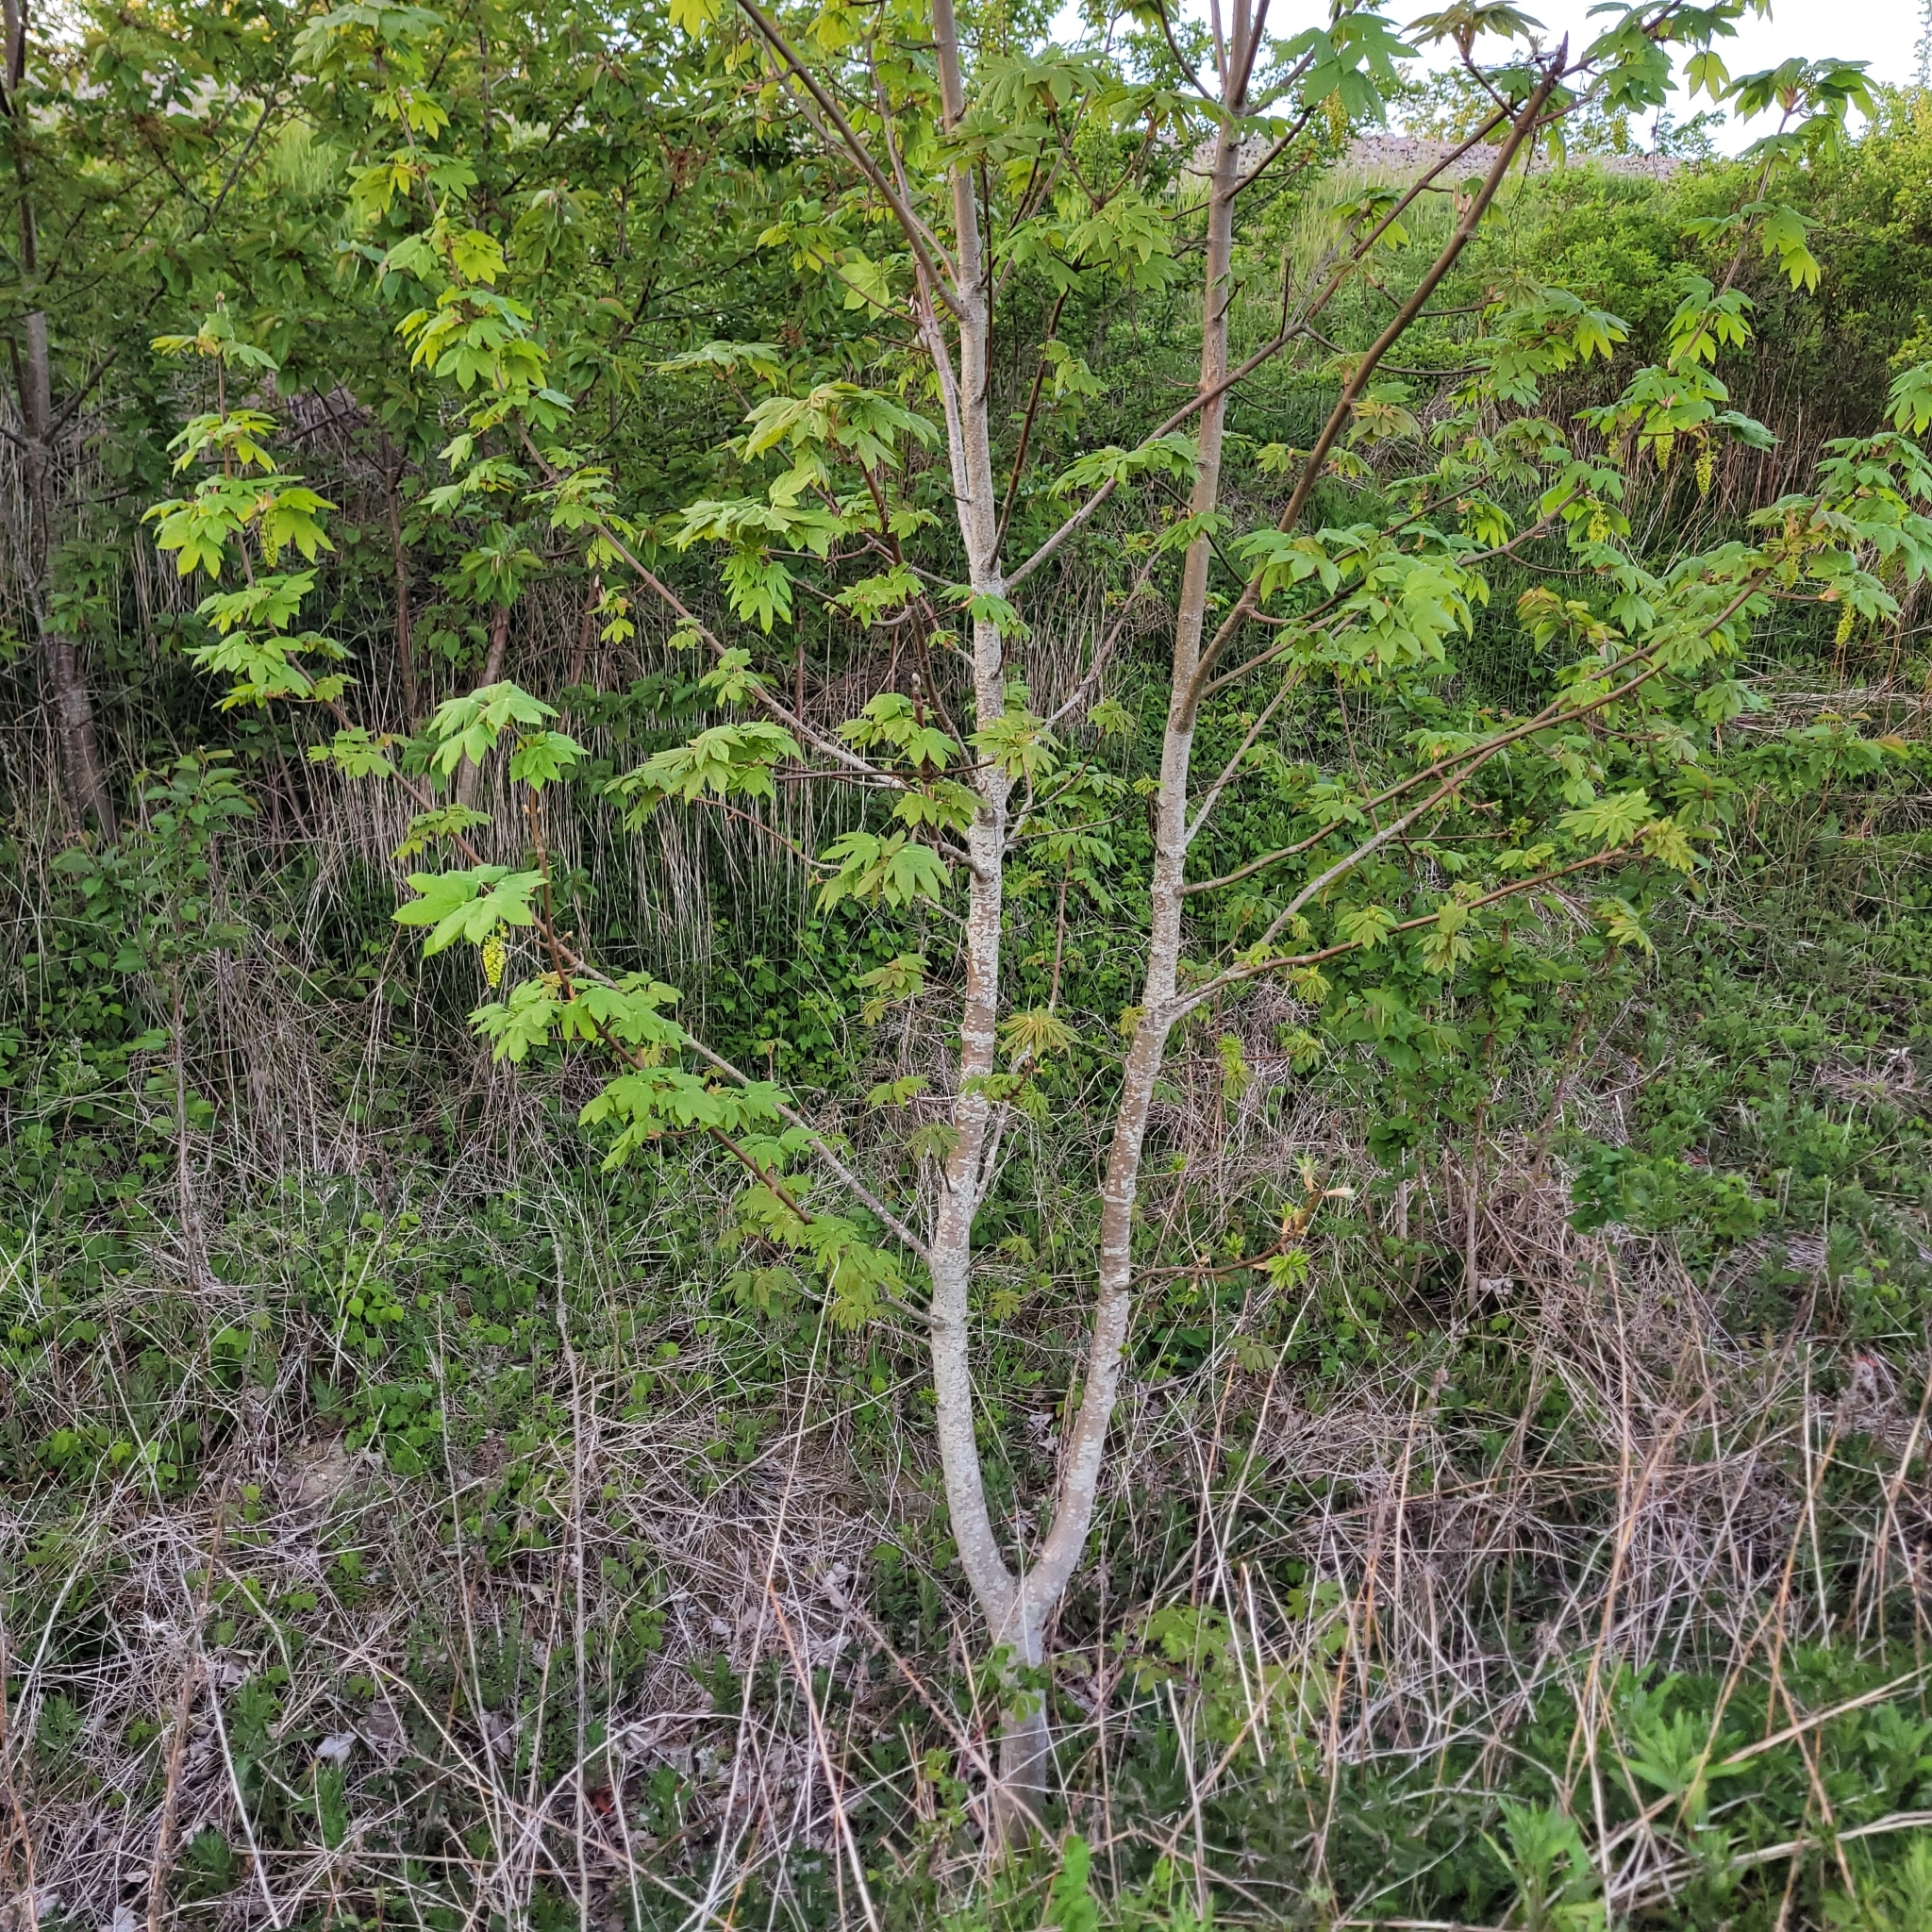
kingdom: Plantae
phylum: Tracheophyta
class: Magnoliopsida
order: Sapindales
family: Sapindaceae
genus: Acer
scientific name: Acer pseudoplatanus
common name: Sycamore
